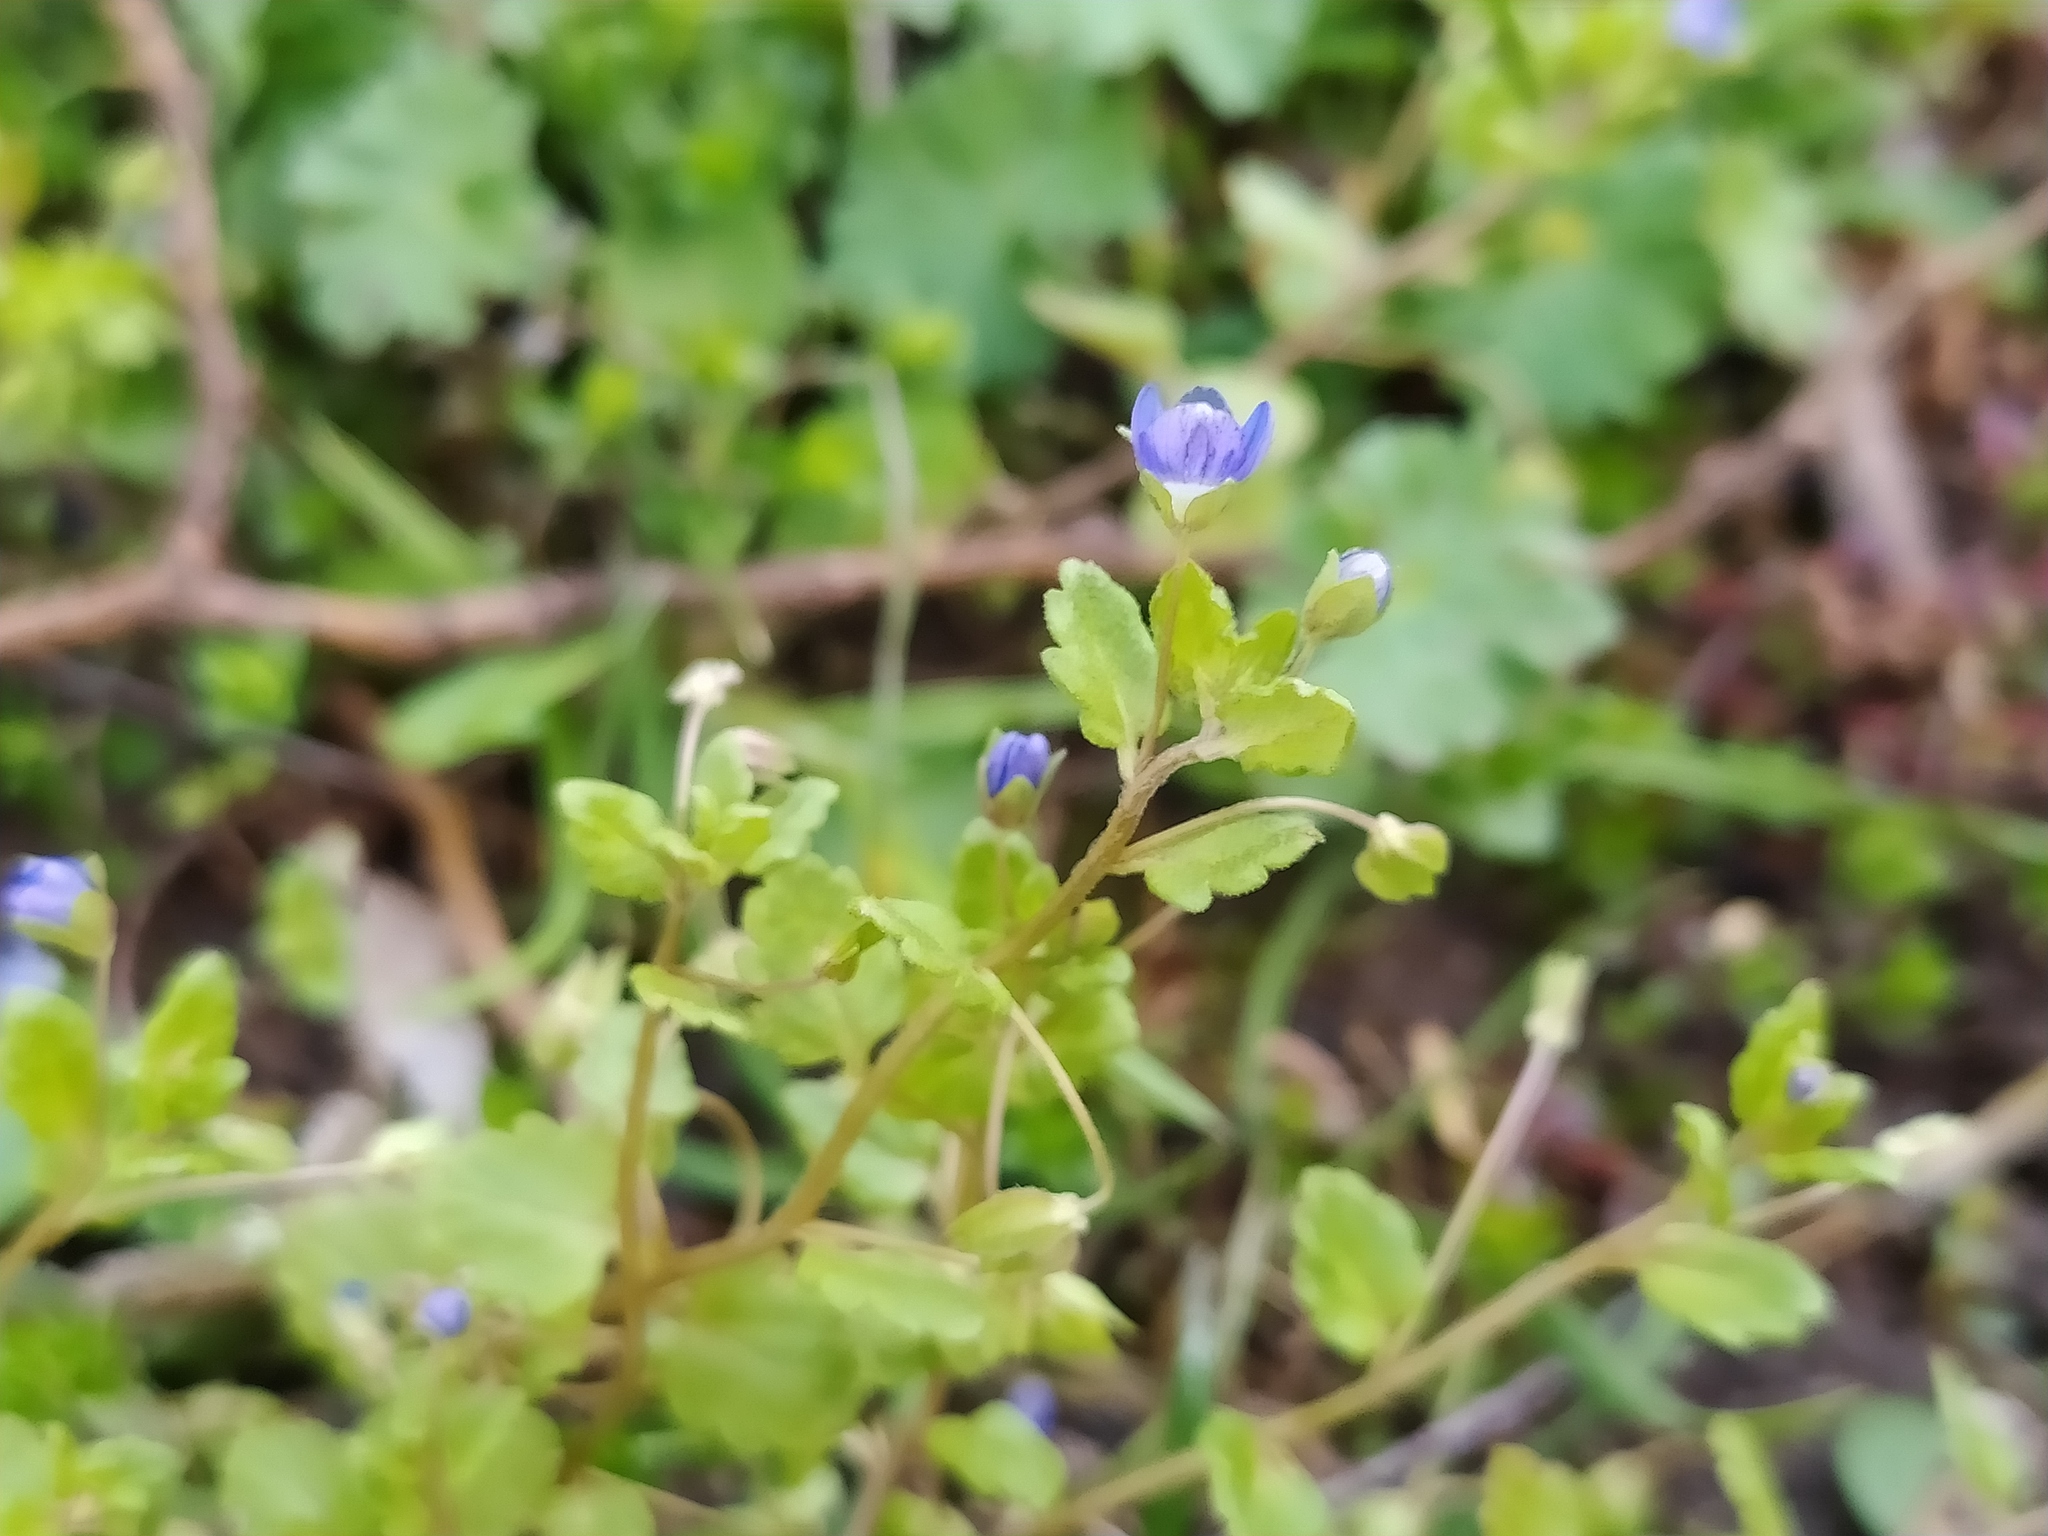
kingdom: Plantae
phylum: Tracheophyta
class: Magnoliopsida
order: Lamiales
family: Plantaginaceae
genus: Veronica
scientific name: Veronica polita
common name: Grey field-speedwell
